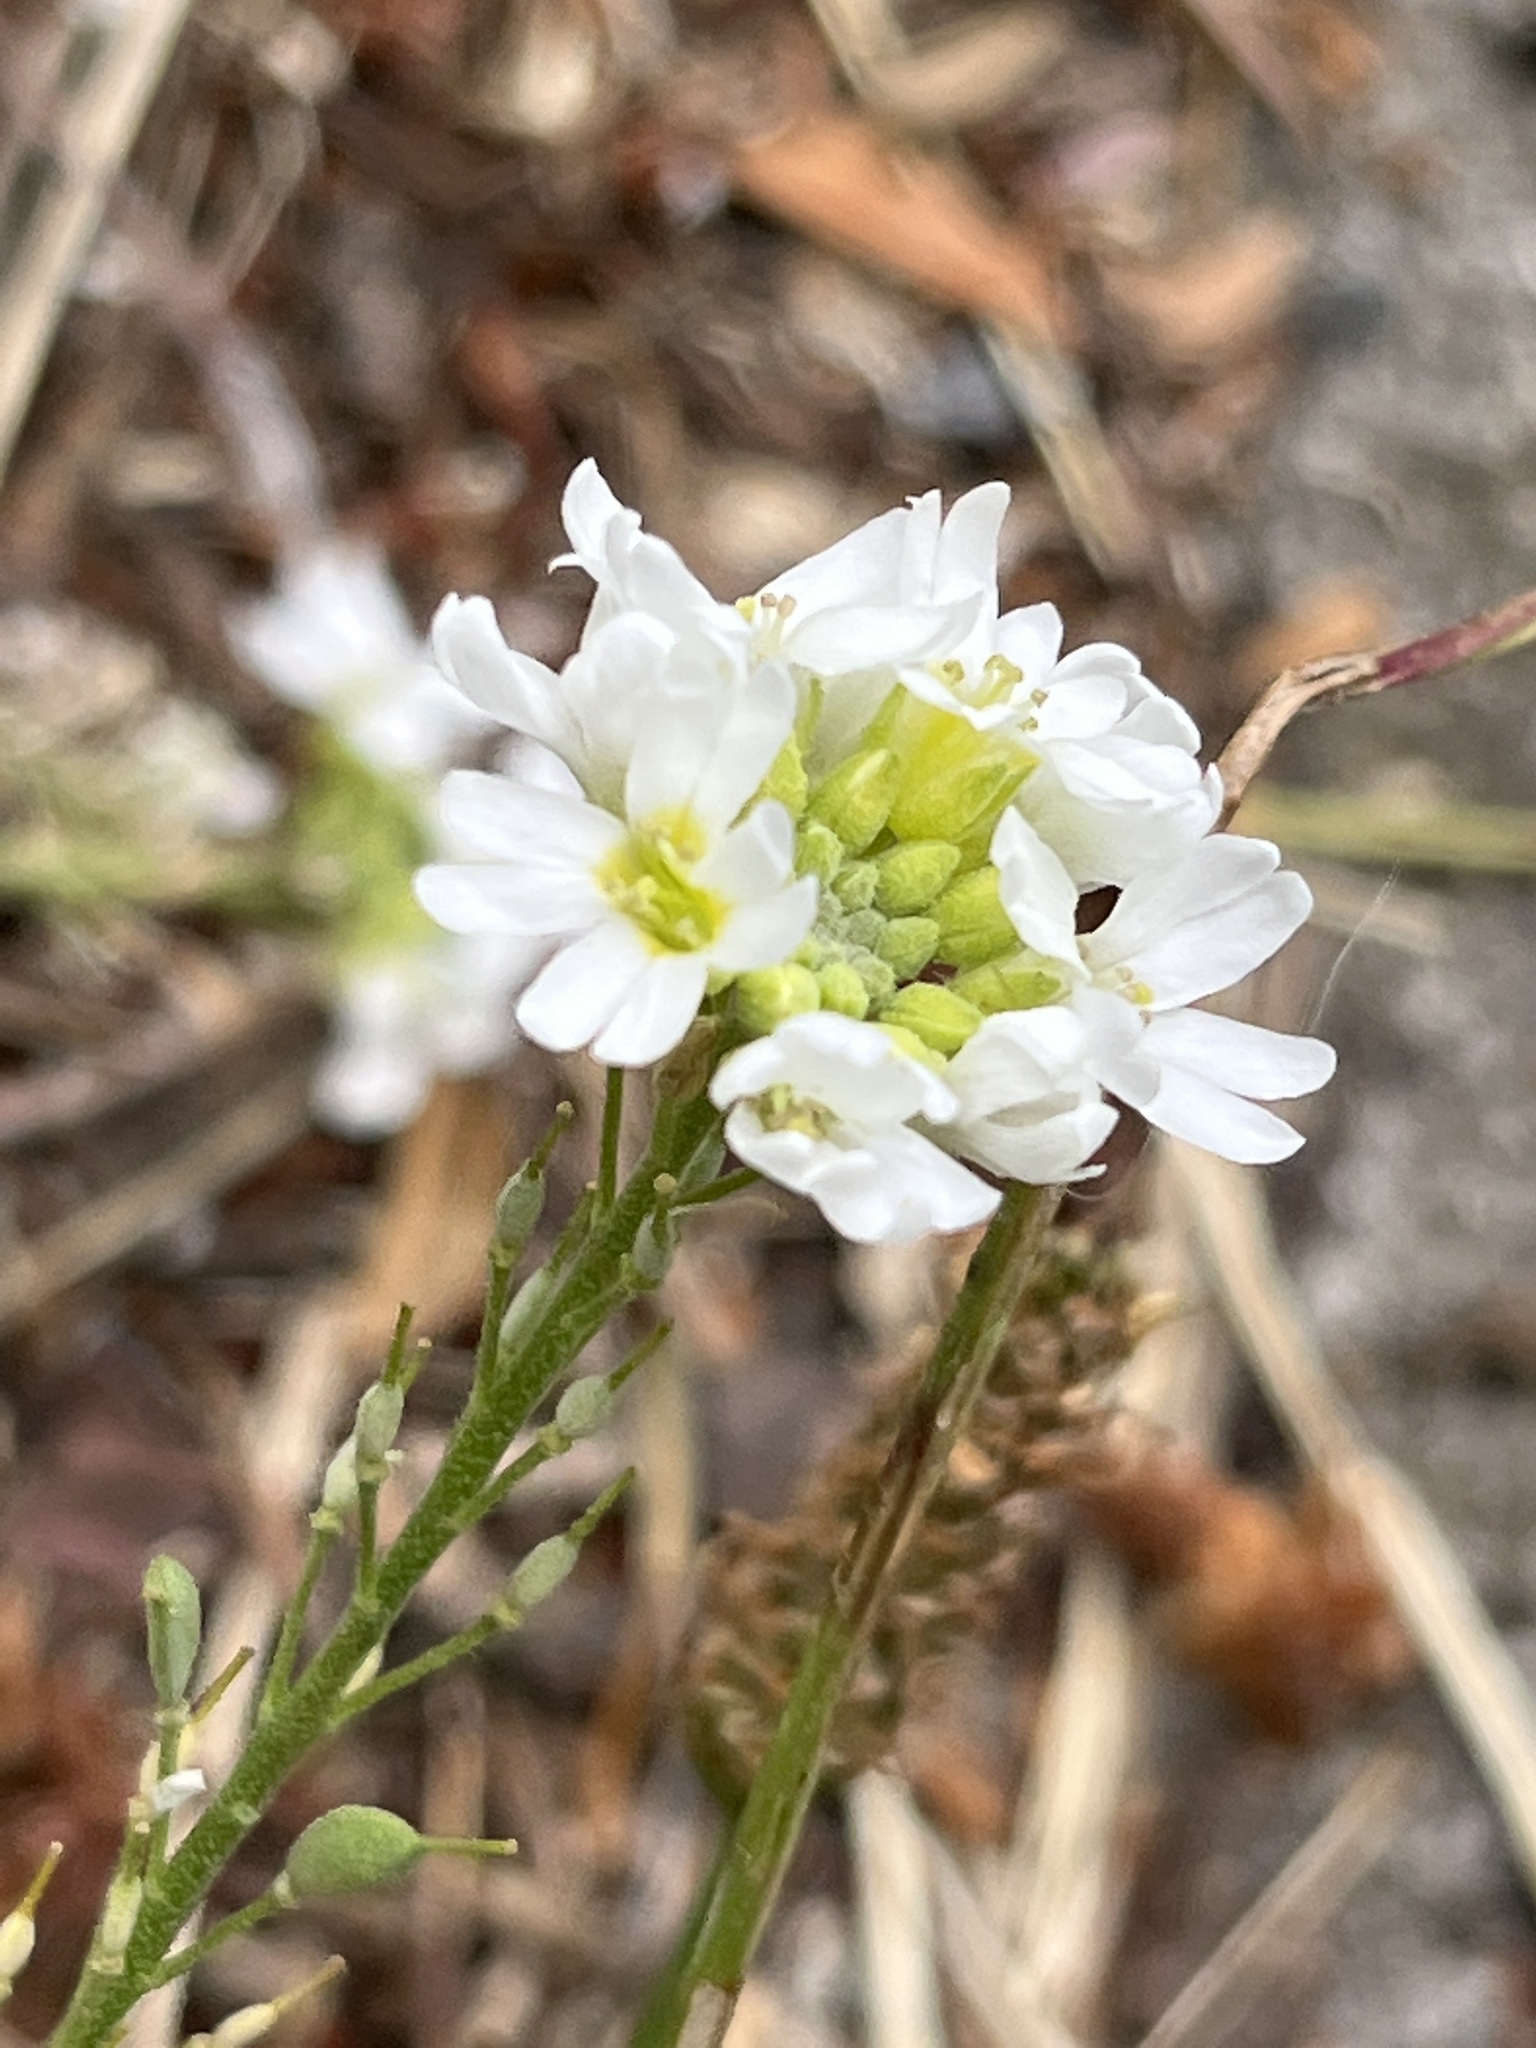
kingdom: Plantae
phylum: Tracheophyta
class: Magnoliopsida
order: Brassicales
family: Brassicaceae
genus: Berteroa
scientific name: Berteroa incana
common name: Hoary alison
